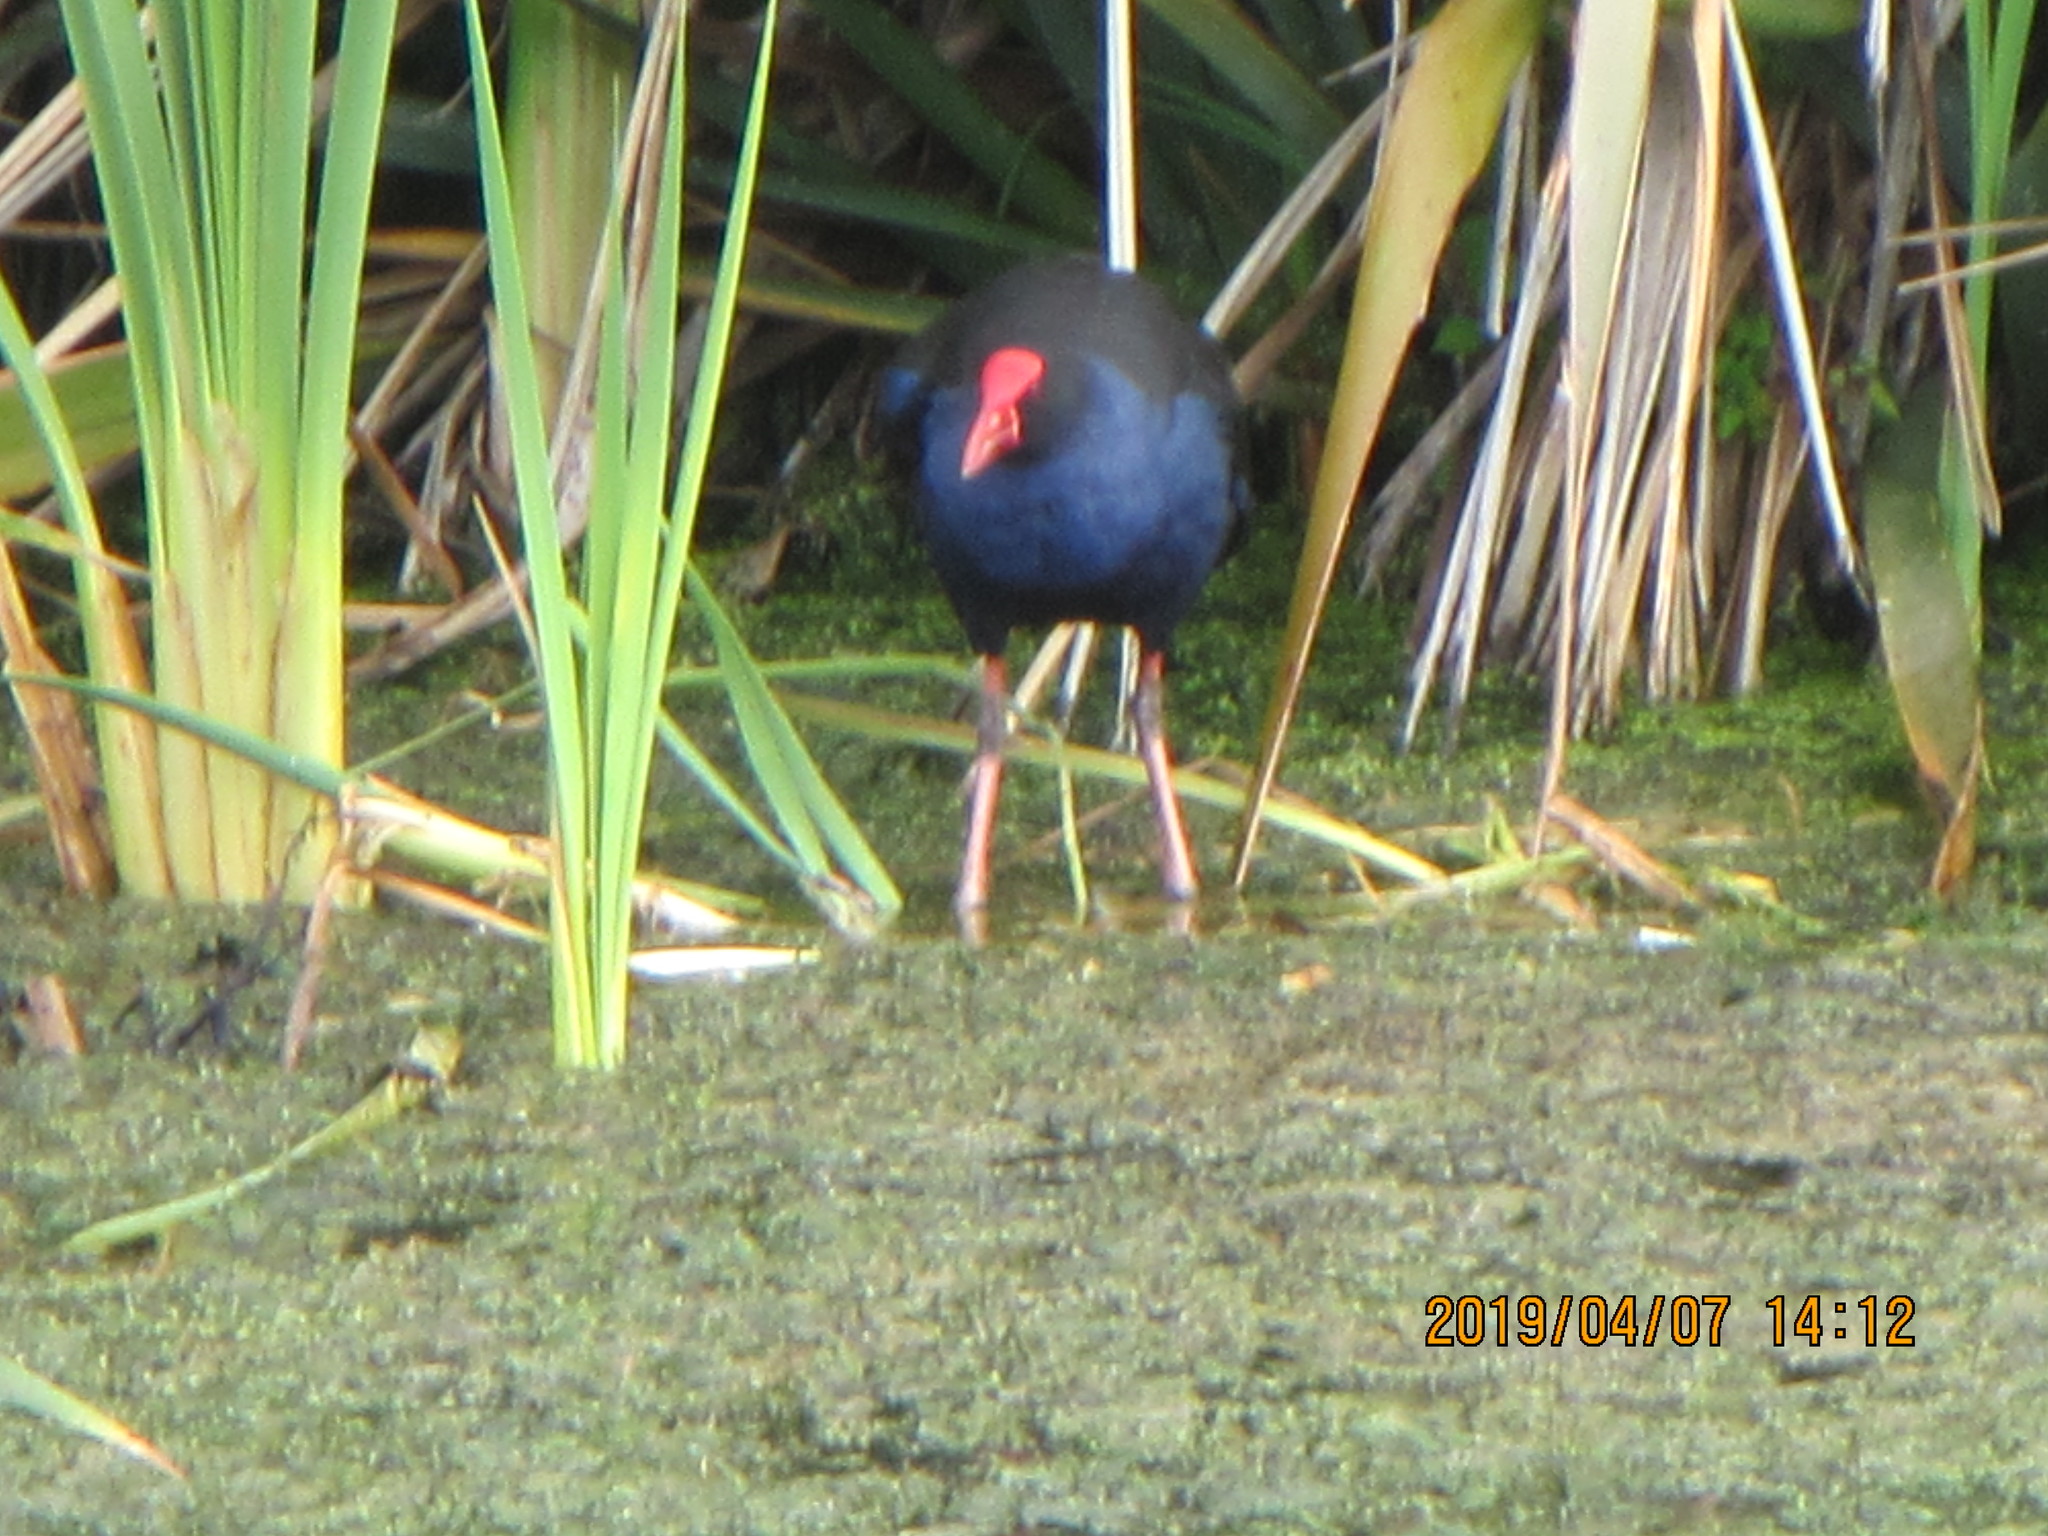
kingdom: Animalia
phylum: Chordata
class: Aves
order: Gruiformes
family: Rallidae
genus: Porphyrio
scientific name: Porphyrio melanotus
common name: Australasian swamphen
